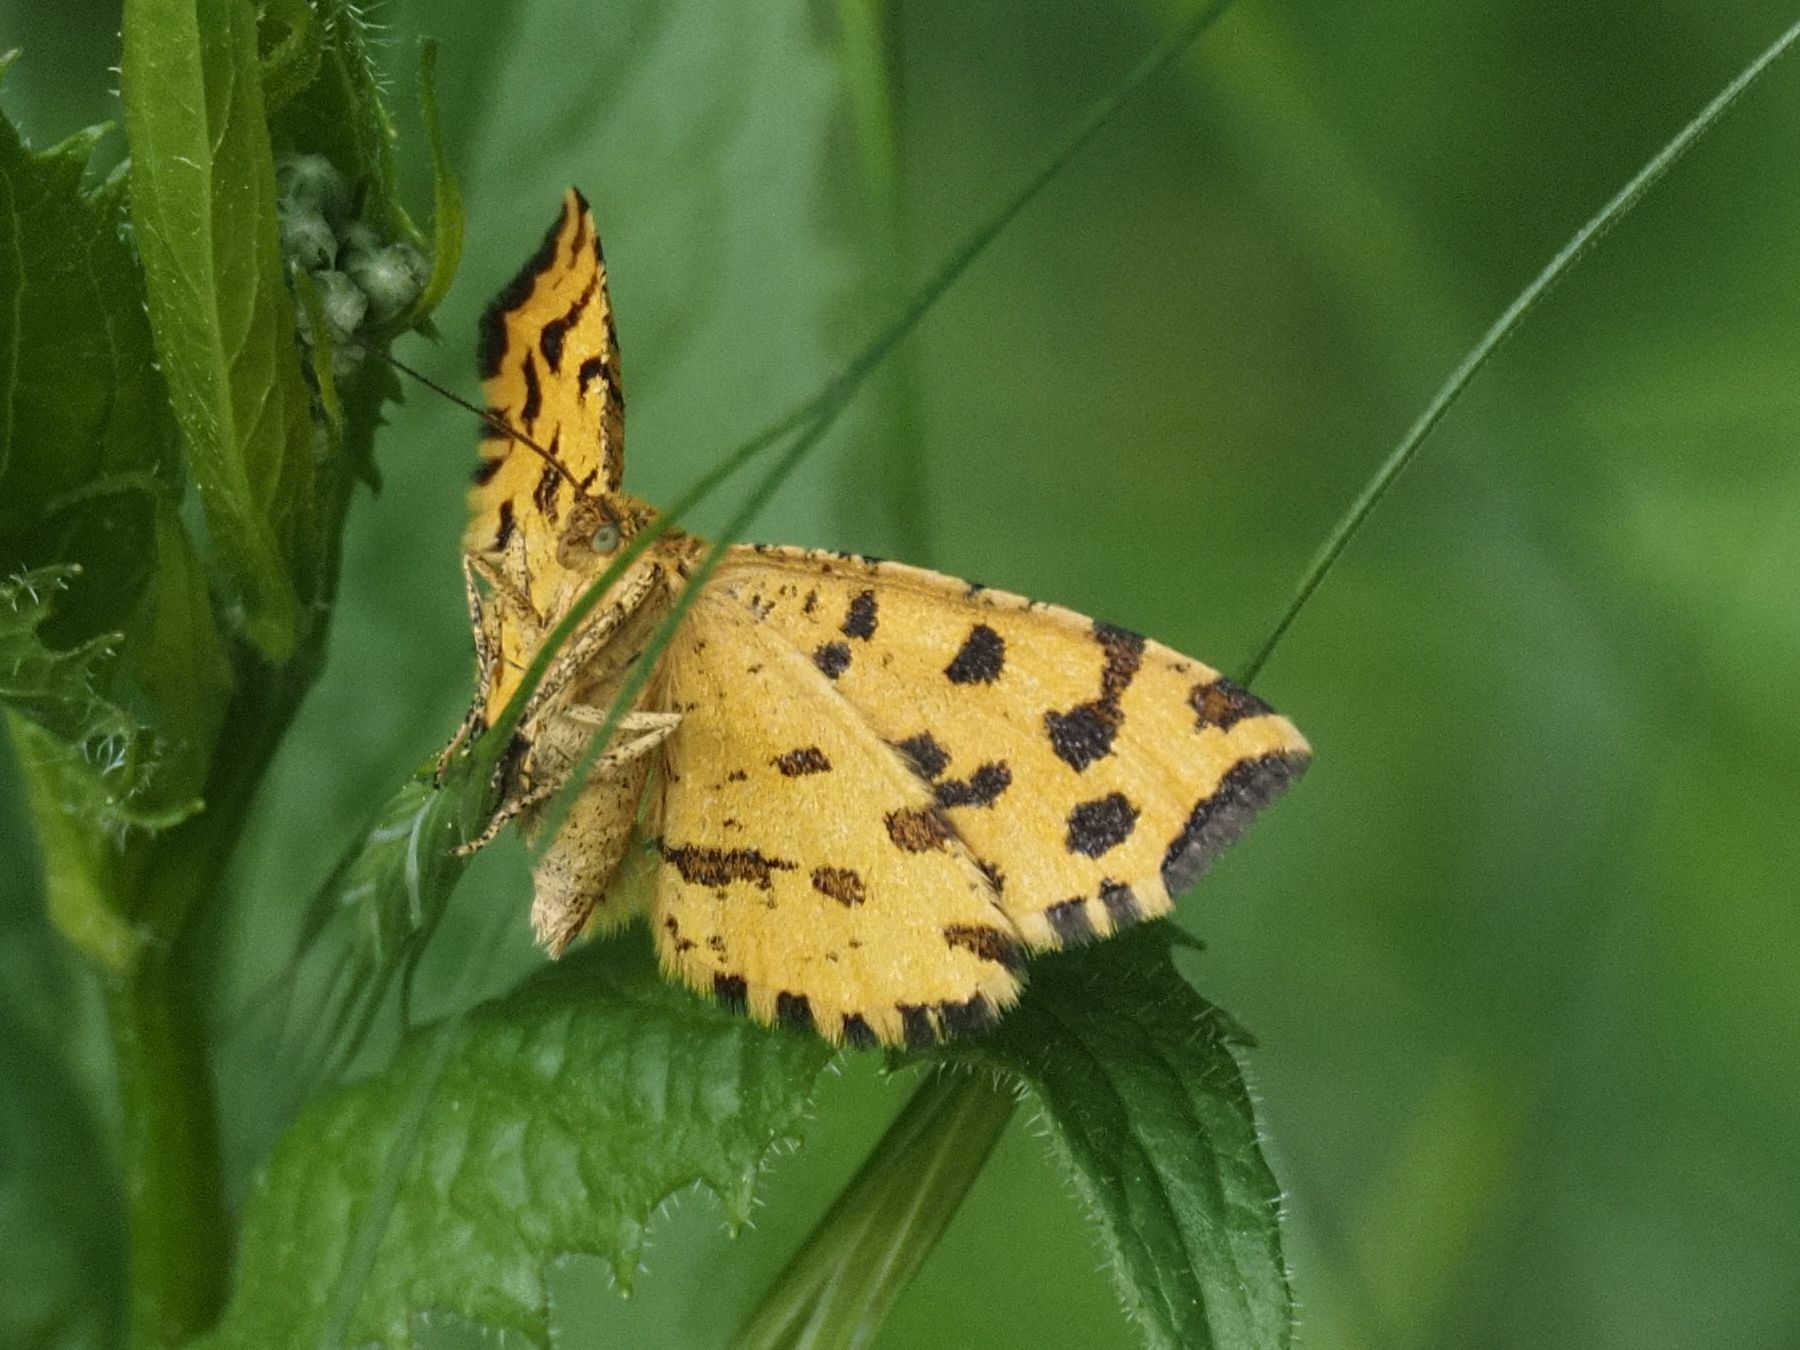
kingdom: Animalia
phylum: Arthropoda
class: Insecta
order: Lepidoptera
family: Geometridae
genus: Pseudopanthera
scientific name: Pseudopanthera macularia
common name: Speckled yellow
